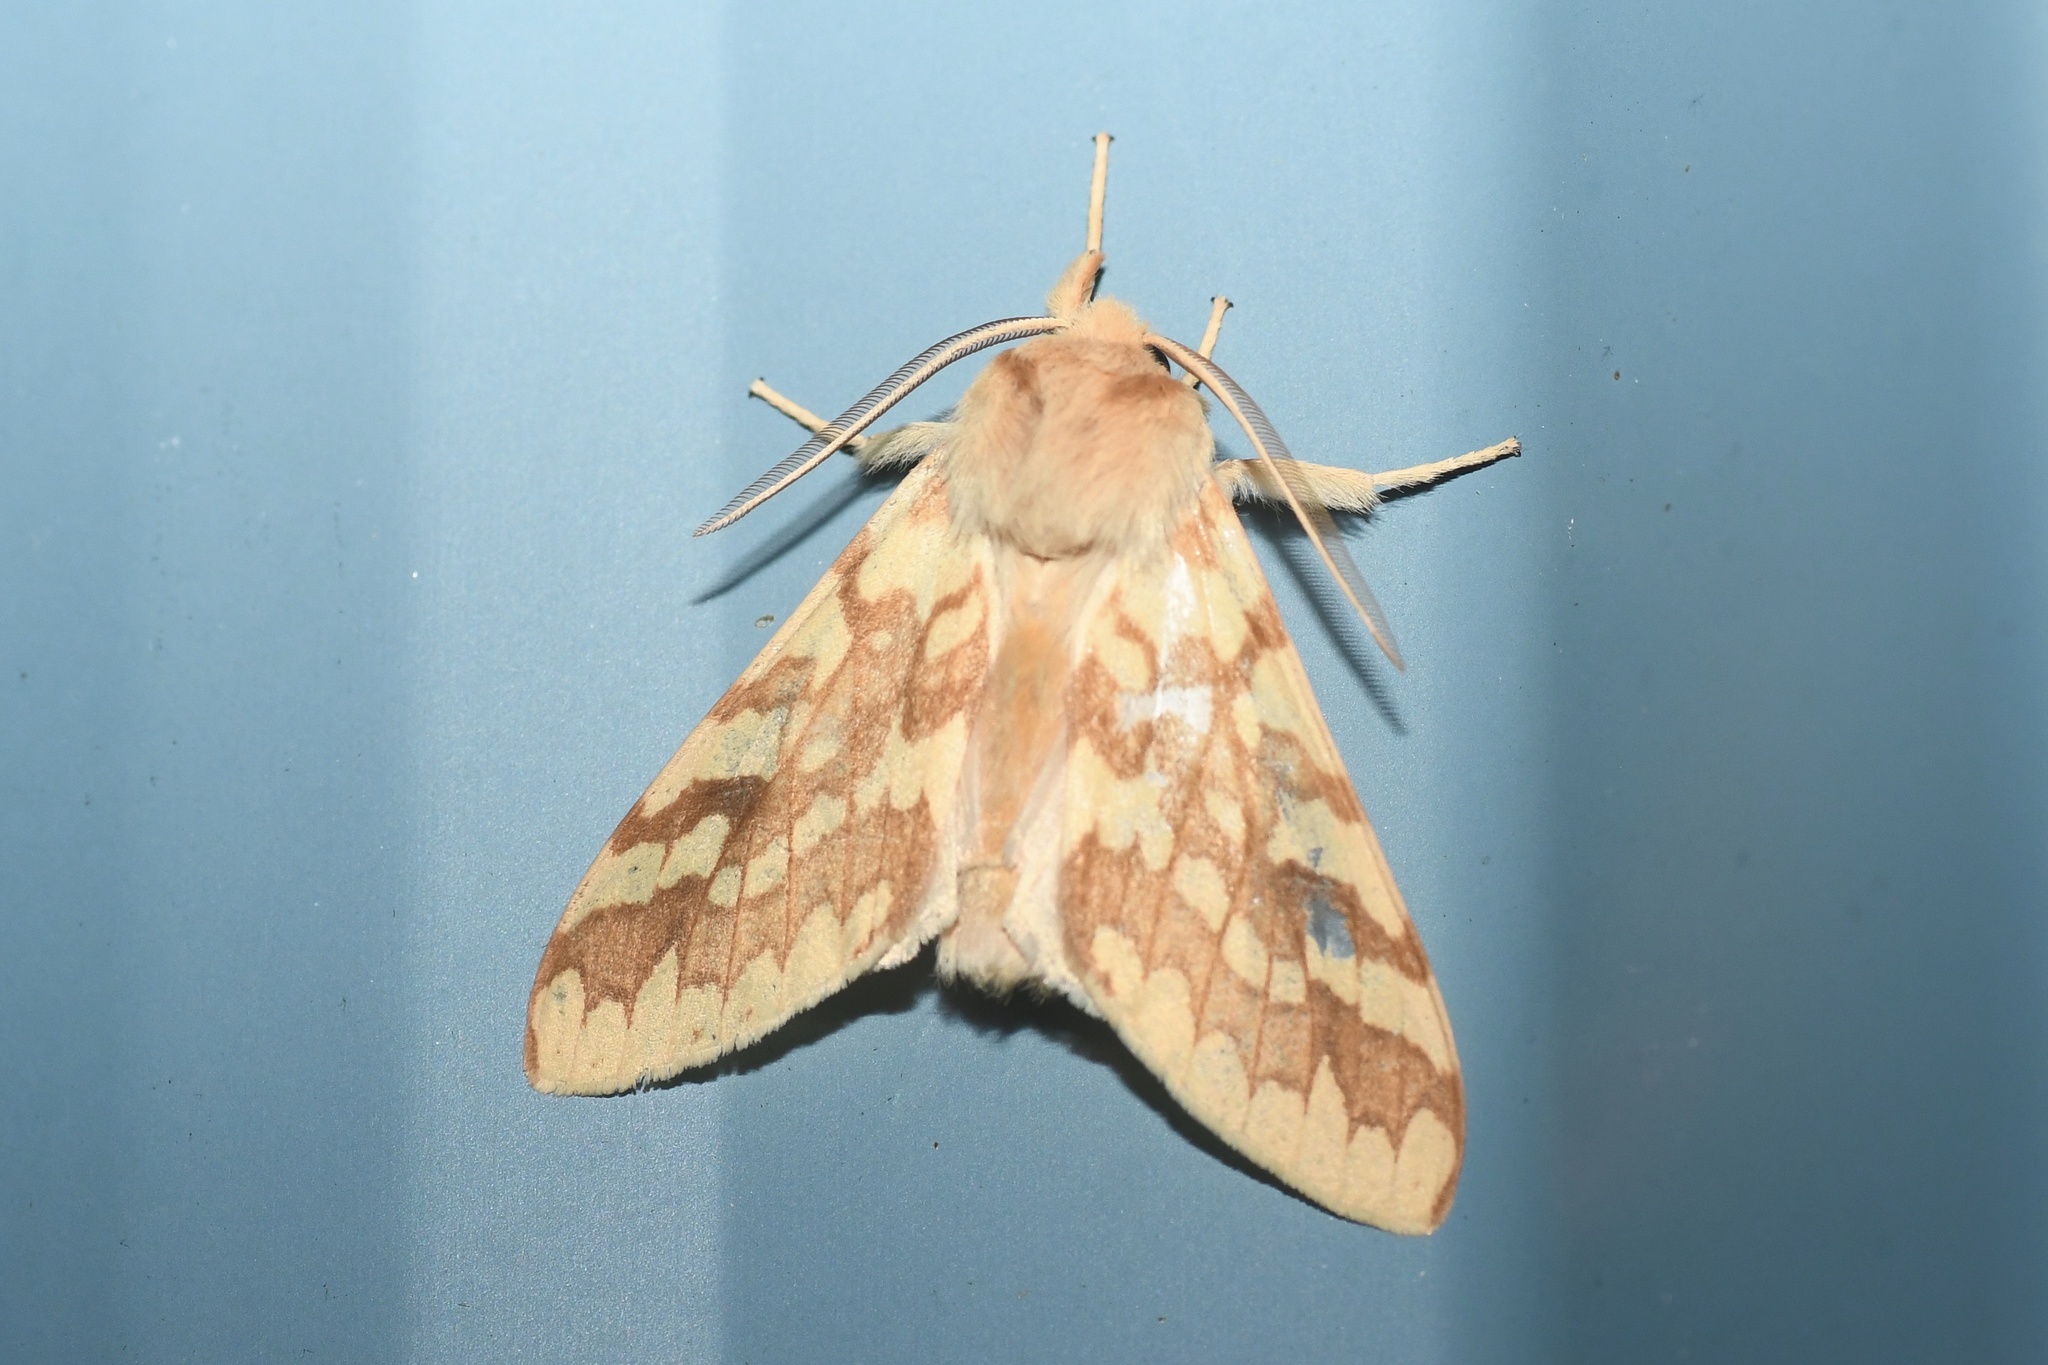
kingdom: Animalia
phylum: Arthropoda
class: Insecta
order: Lepidoptera
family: Erebidae
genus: Lophocampa
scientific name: Lophocampa maculata
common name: Spotted tussock moth
